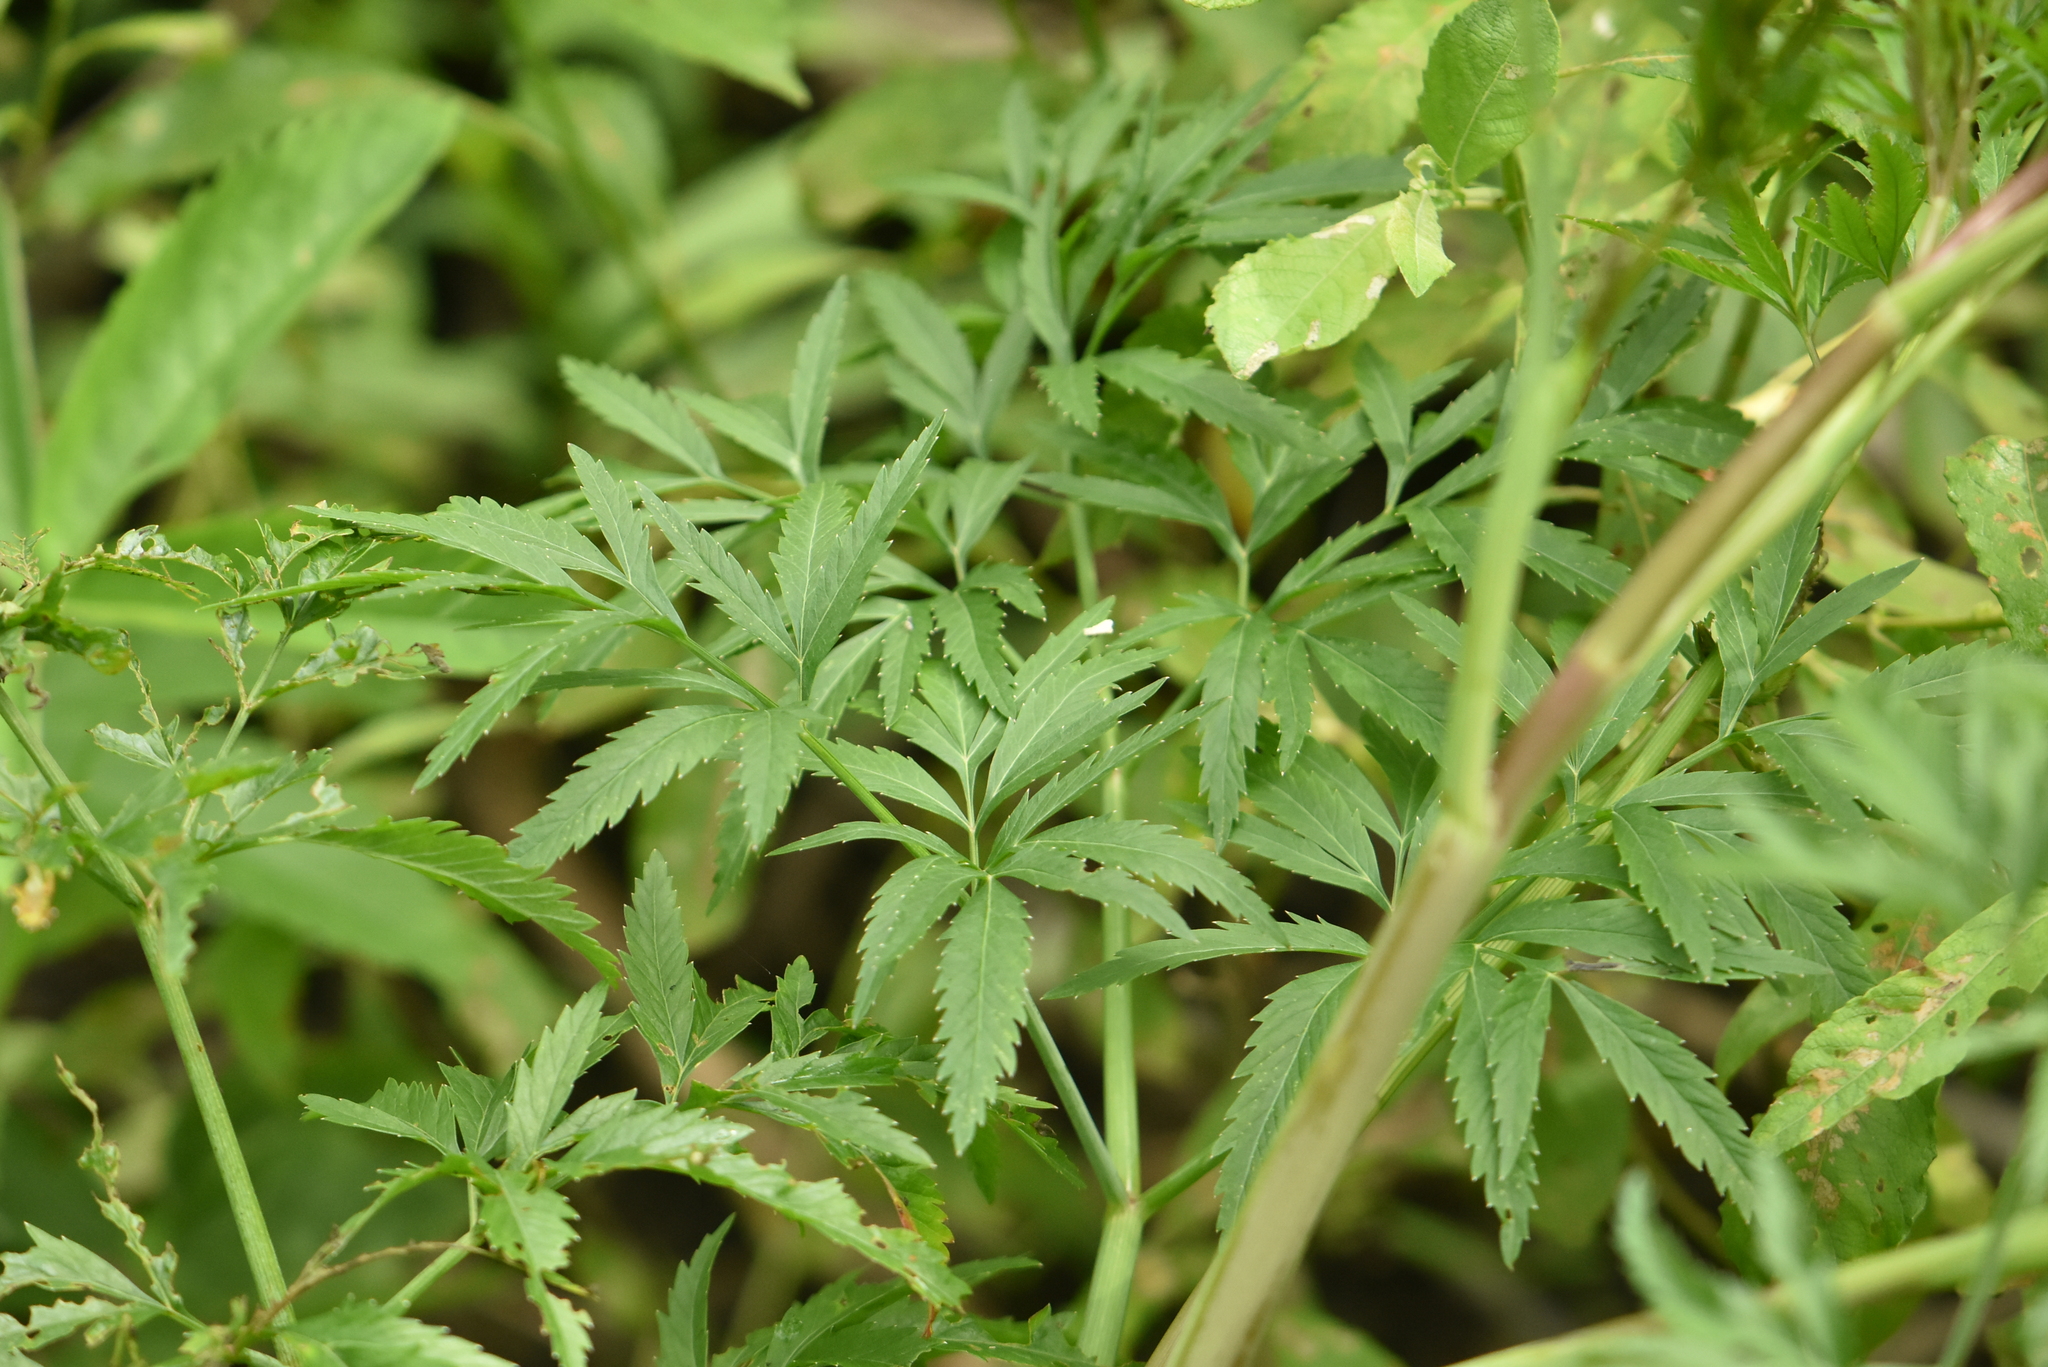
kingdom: Plantae
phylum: Tracheophyta
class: Magnoliopsida
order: Apiales
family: Apiaceae
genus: Cicuta
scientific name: Cicuta virosa
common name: Cowbane
